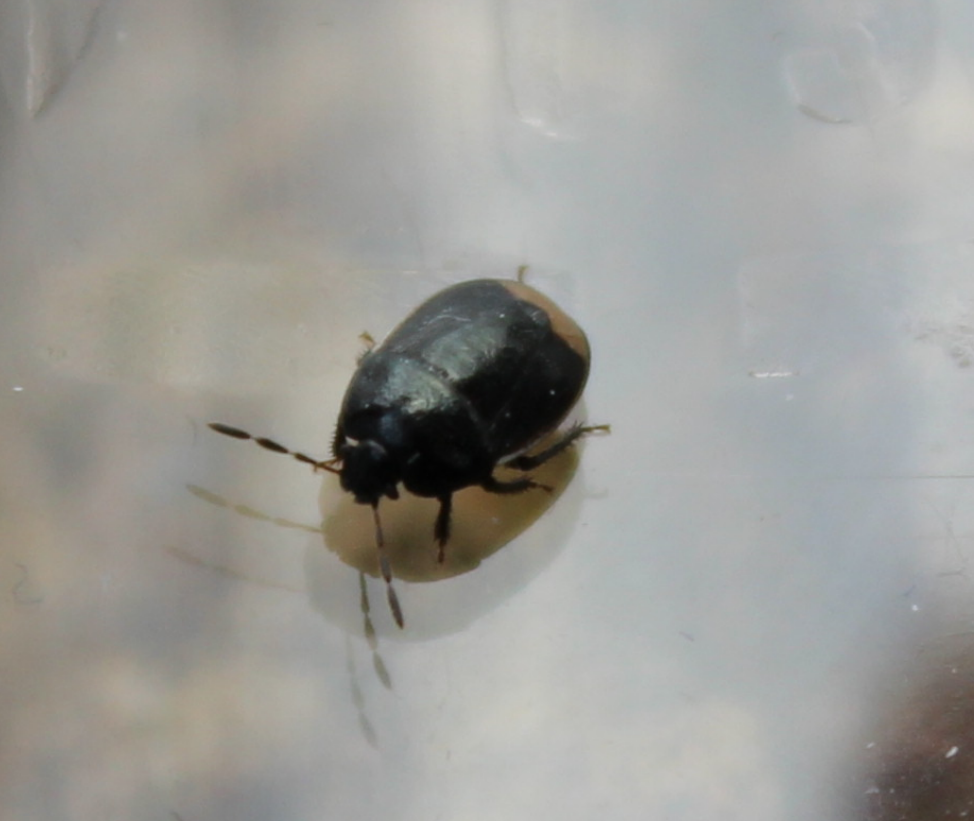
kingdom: Animalia
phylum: Arthropoda
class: Insecta
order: Hemiptera
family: Cydnidae
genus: Legnotus
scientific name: Legnotus limbosus
